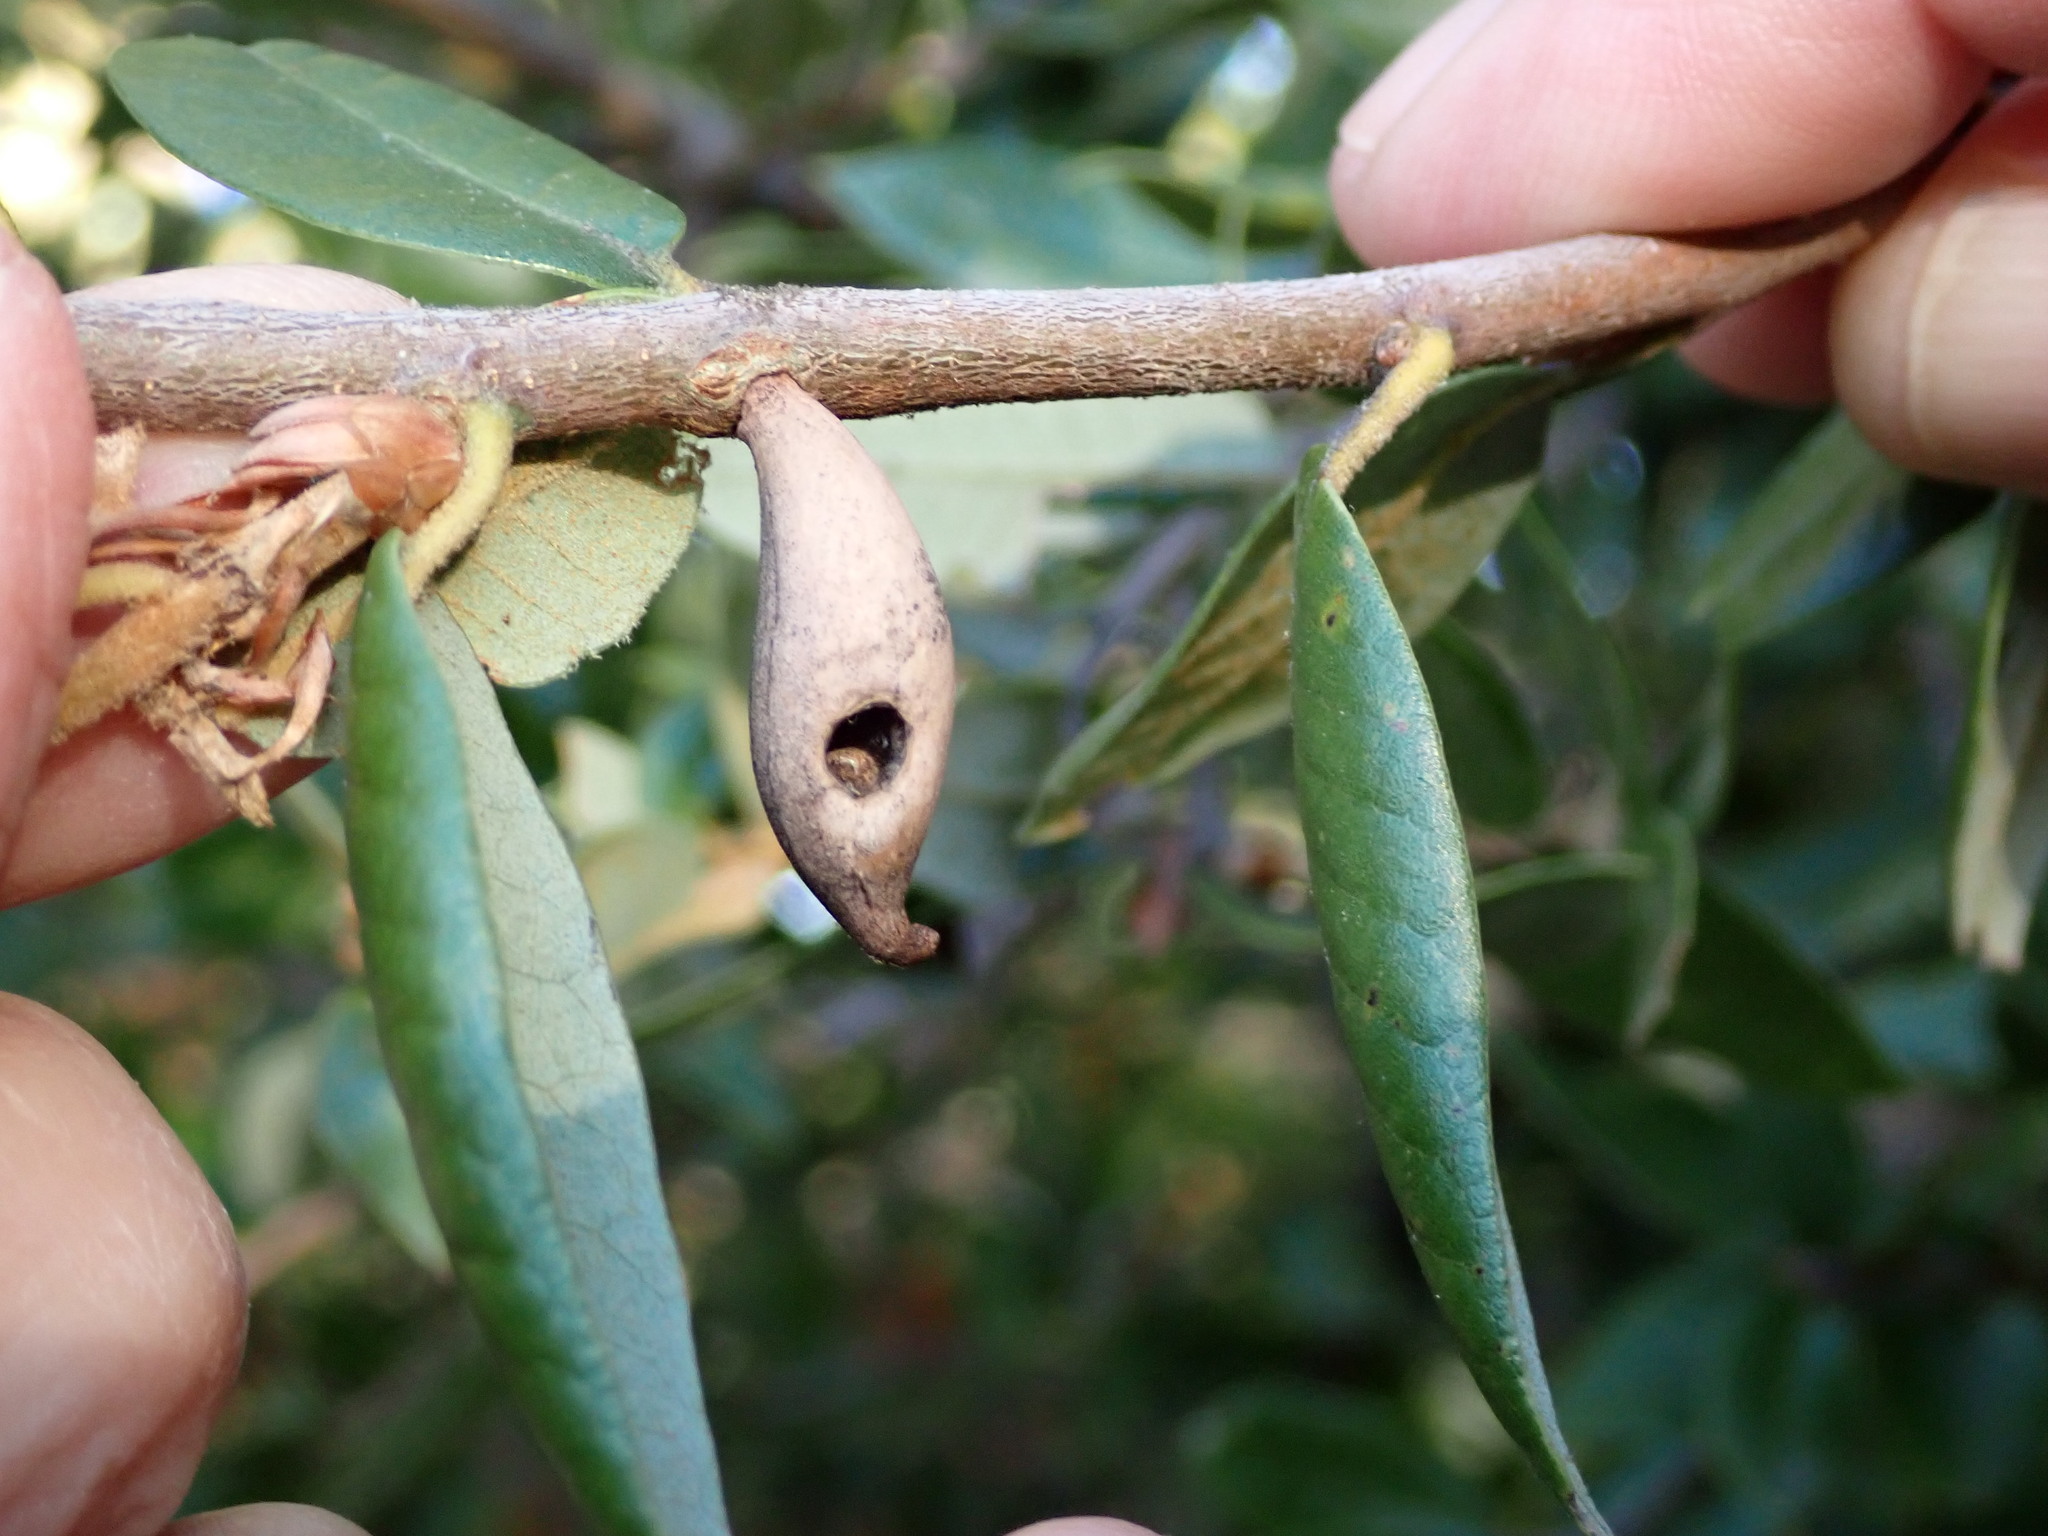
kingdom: Animalia
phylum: Arthropoda
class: Insecta
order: Hymenoptera
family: Cynipidae
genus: Heteroecus
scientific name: Heteroecus pacificus
